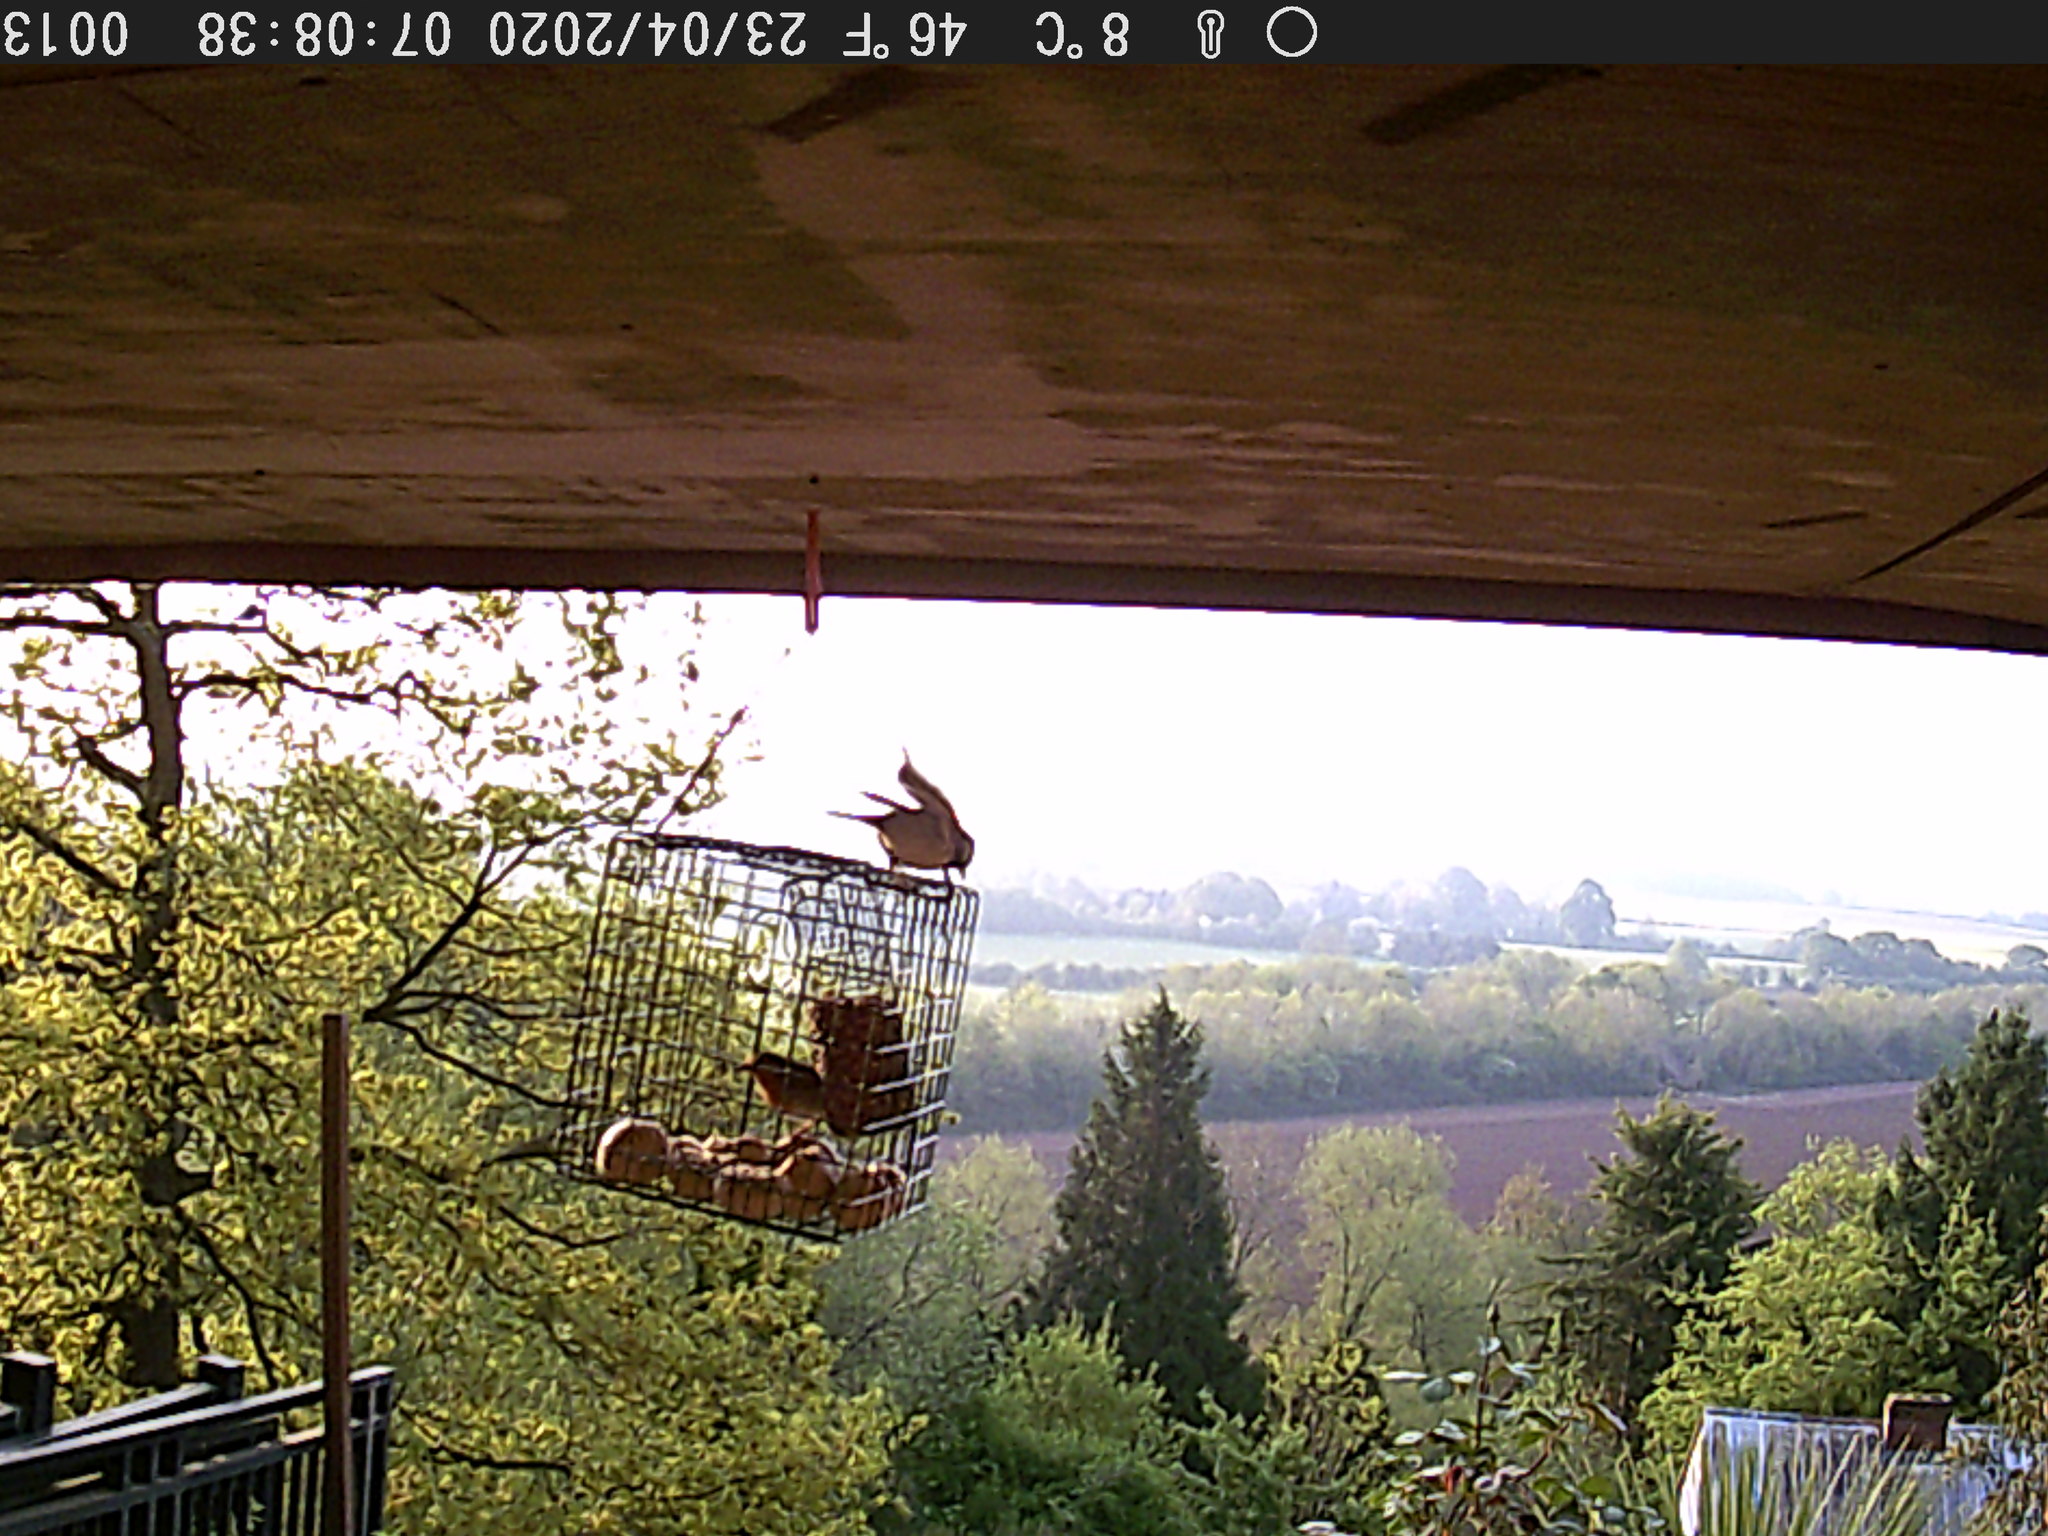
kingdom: Animalia
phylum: Chordata
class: Aves
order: Passeriformes
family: Paridae
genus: Parus
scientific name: Parus major
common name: Great tit
